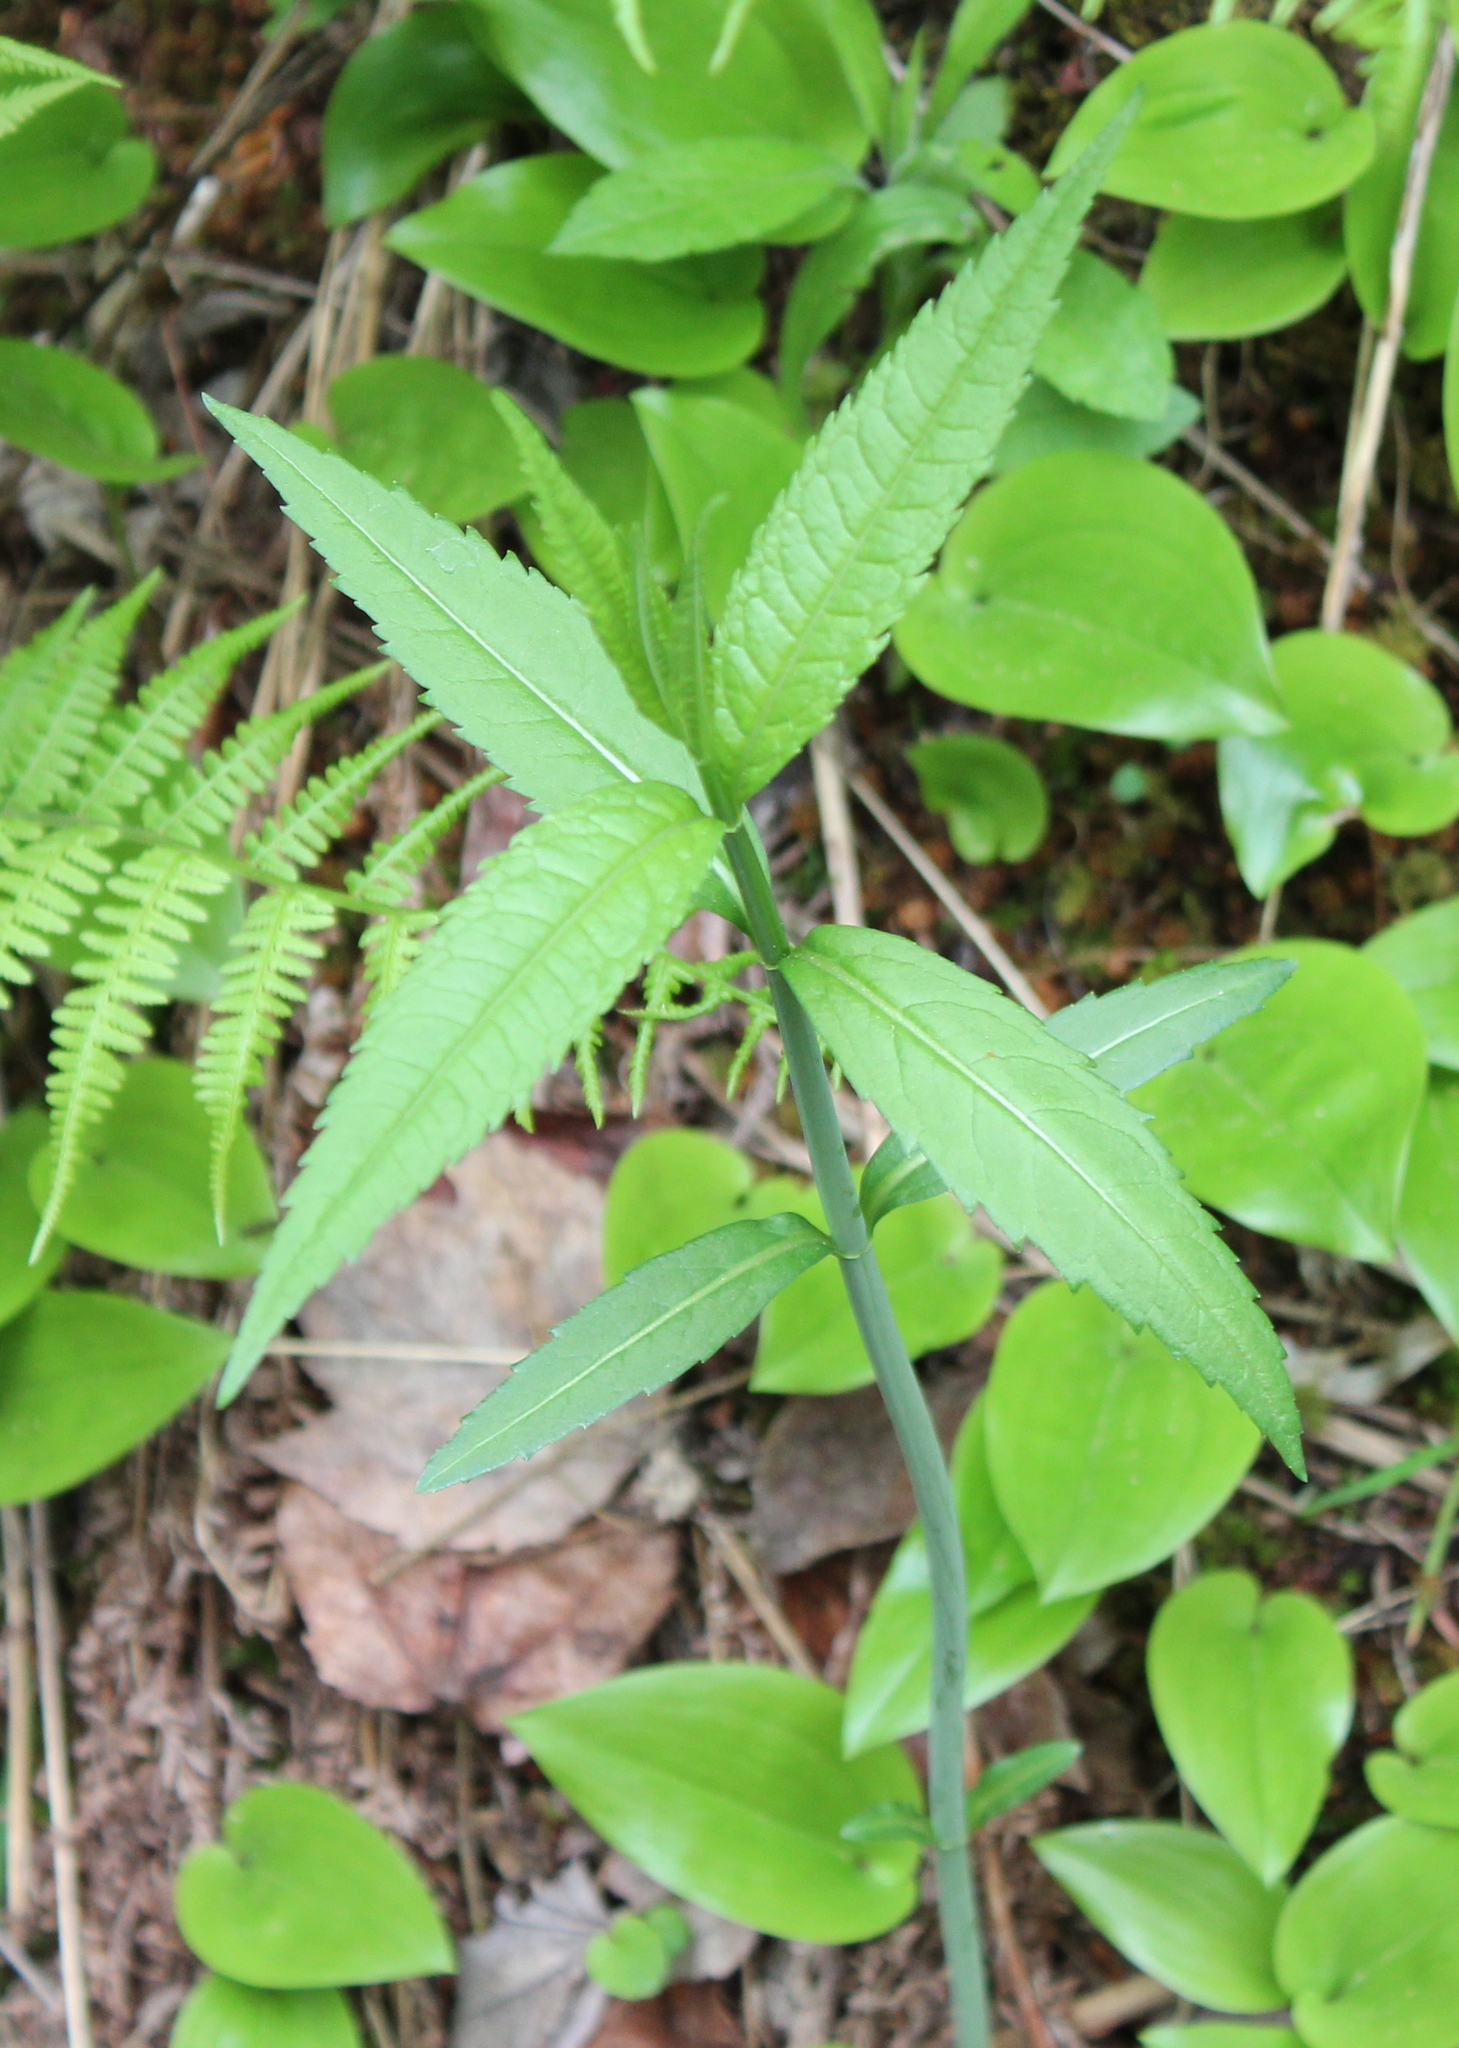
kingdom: Plantae
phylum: Tracheophyta
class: Magnoliopsida
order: Lamiales
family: Plantaginaceae
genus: Chelone
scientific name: Chelone glabra
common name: Snakehead
